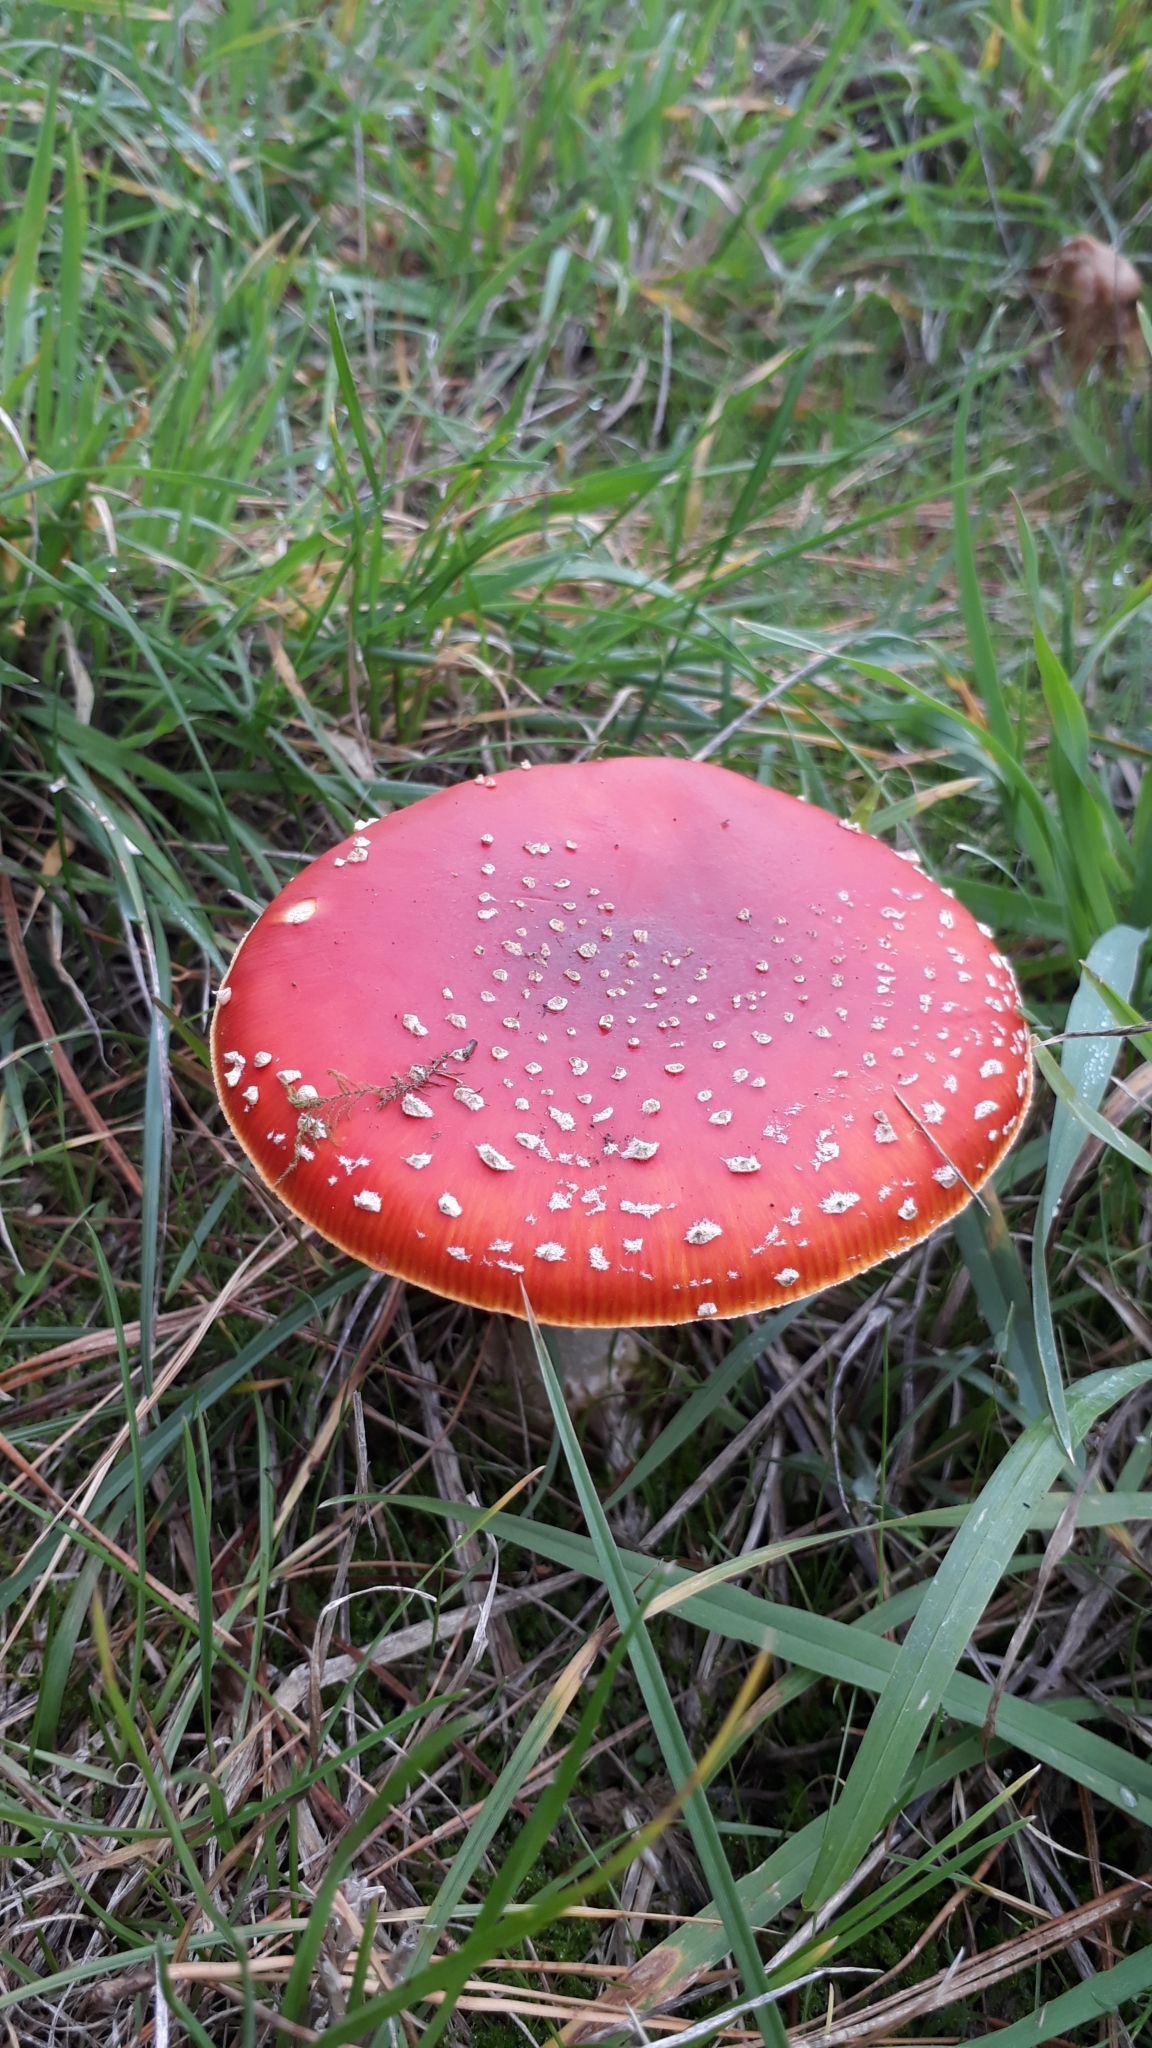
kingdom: Fungi
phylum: Basidiomycota
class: Agaricomycetes
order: Agaricales
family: Amanitaceae
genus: Amanita
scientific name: Amanita muscaria
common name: Fly agaric
